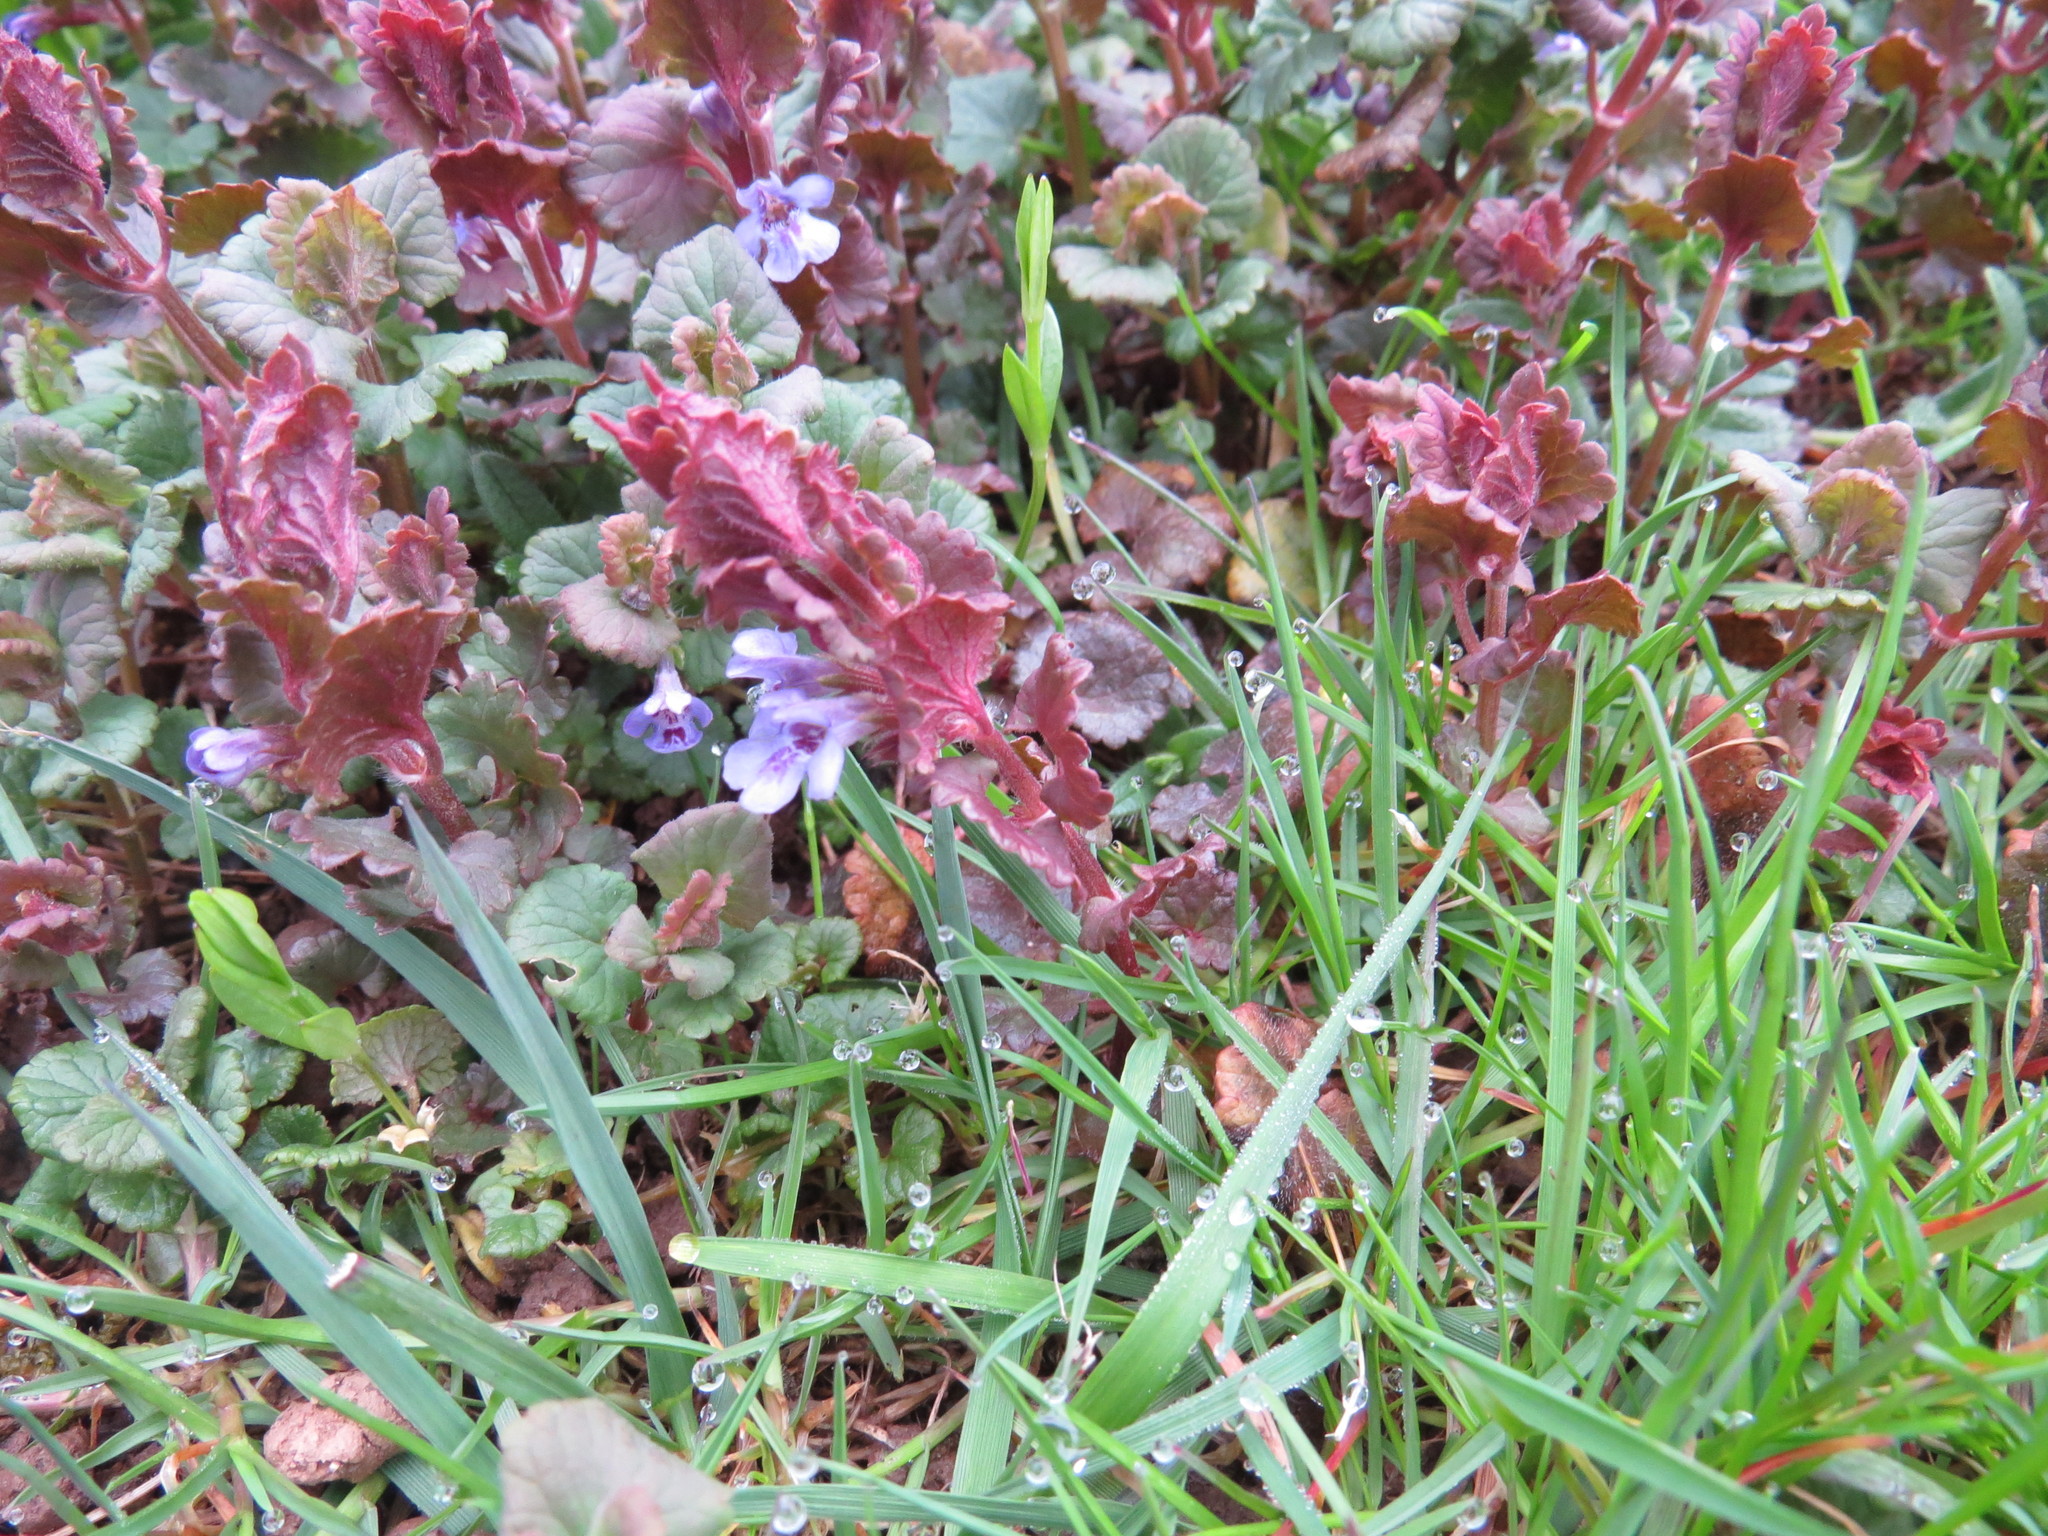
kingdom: Plantae
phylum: Tracheophyta
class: Magnoliopsida
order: Lamiales
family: Lamiaceae
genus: Glechoma
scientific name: Glechoma hederacea
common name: Ground ivy
